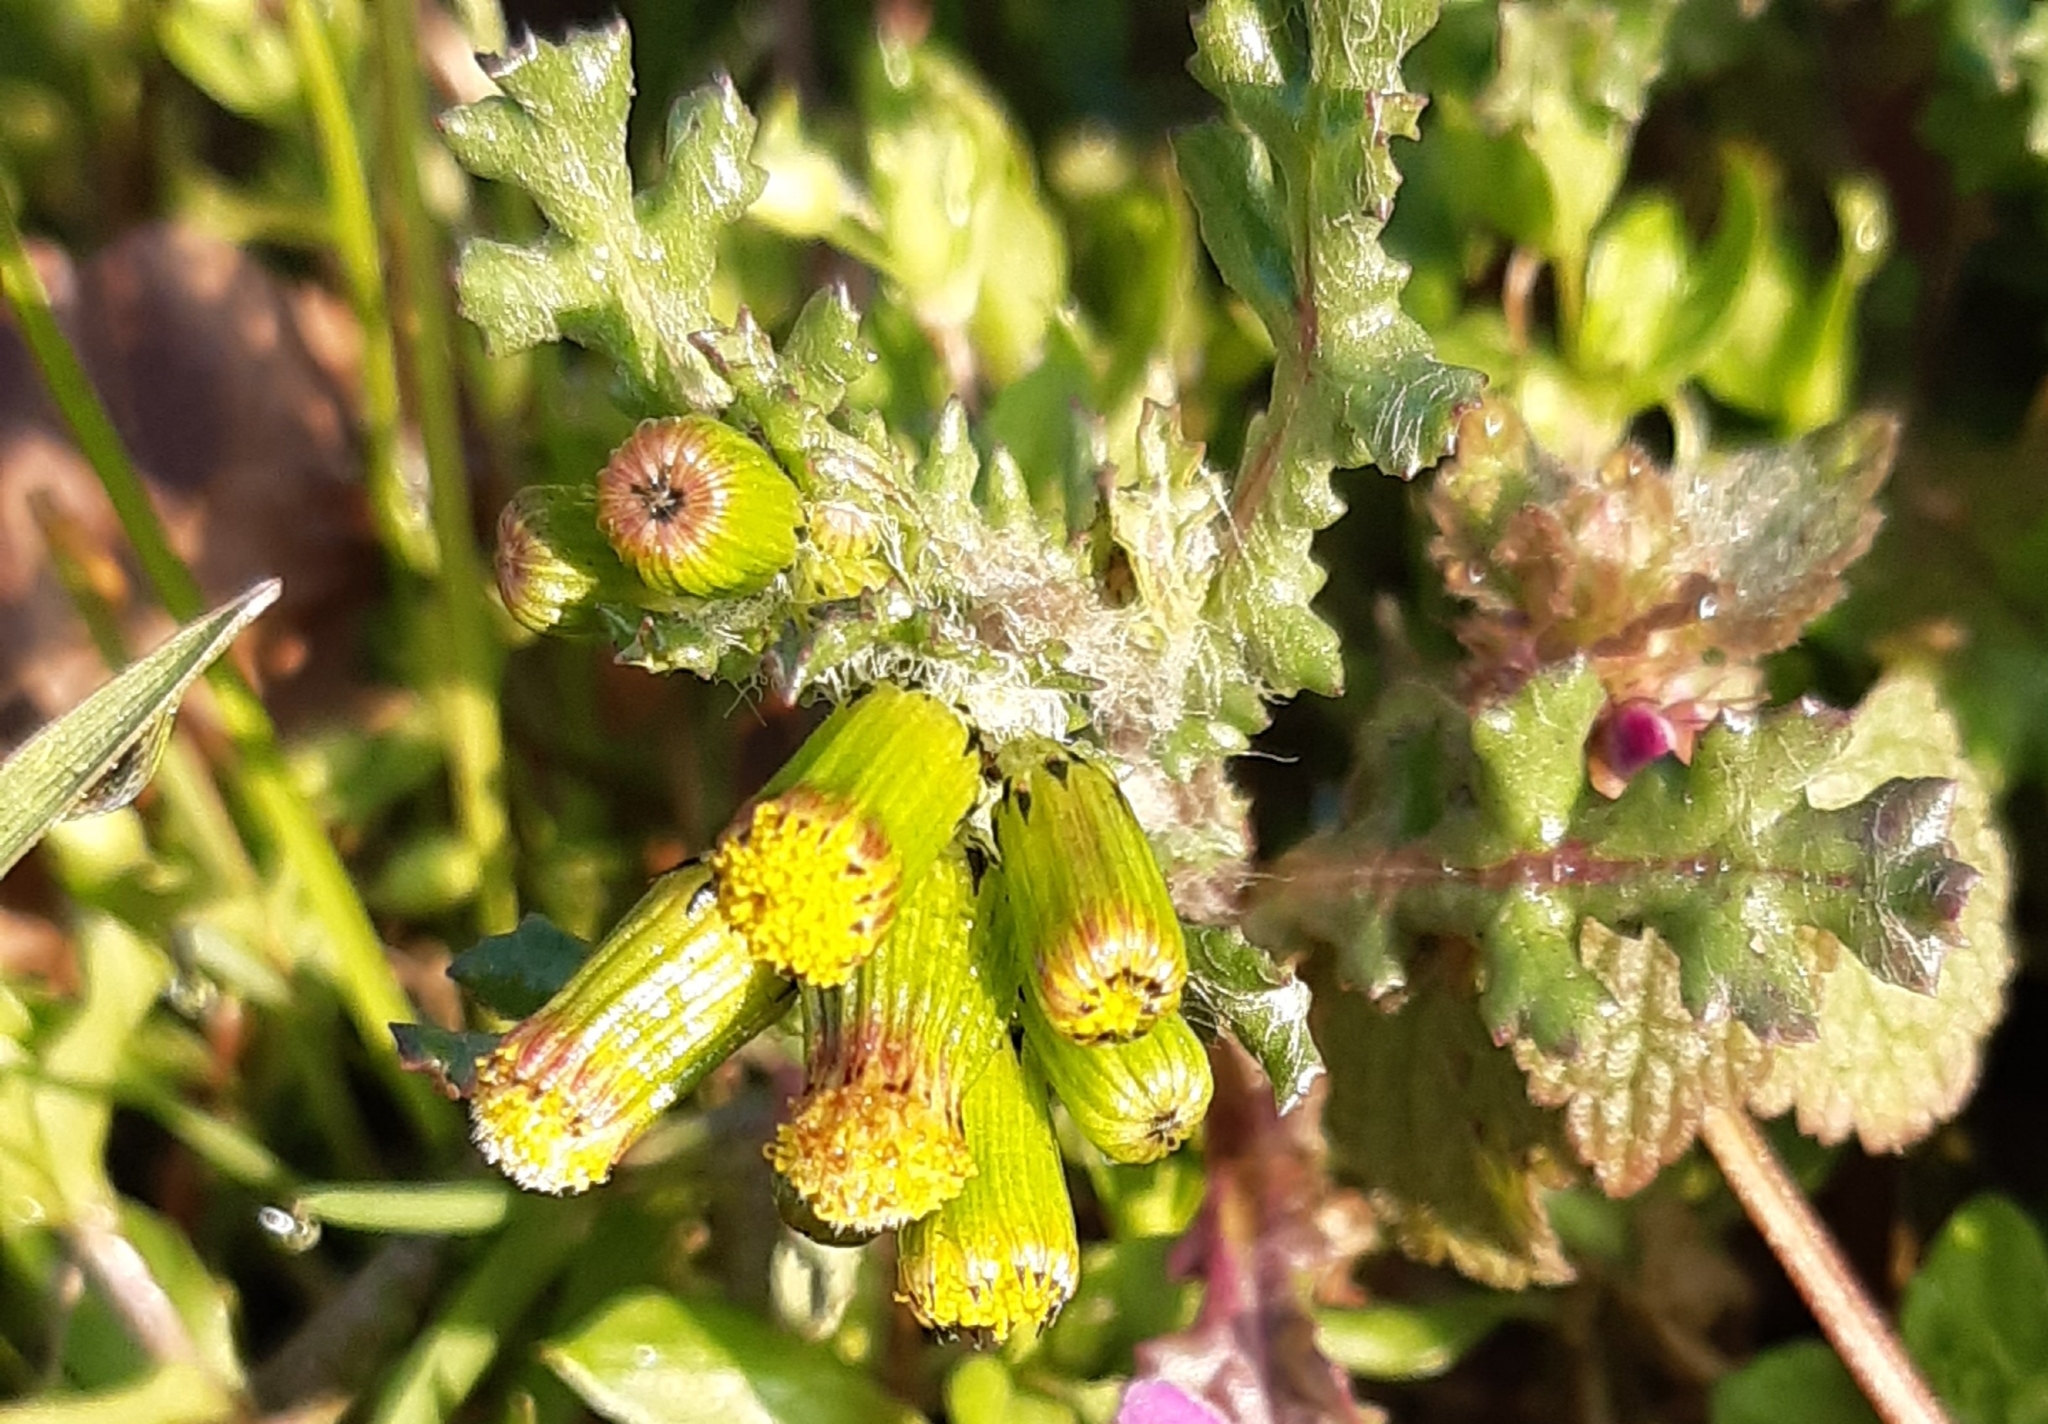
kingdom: Plantae
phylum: Tracheophyta
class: Magnoliopsida
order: Asterales
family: Asteraceae
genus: Senecio
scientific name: Senecio vulgaris
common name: Old-man-in-the-spring
